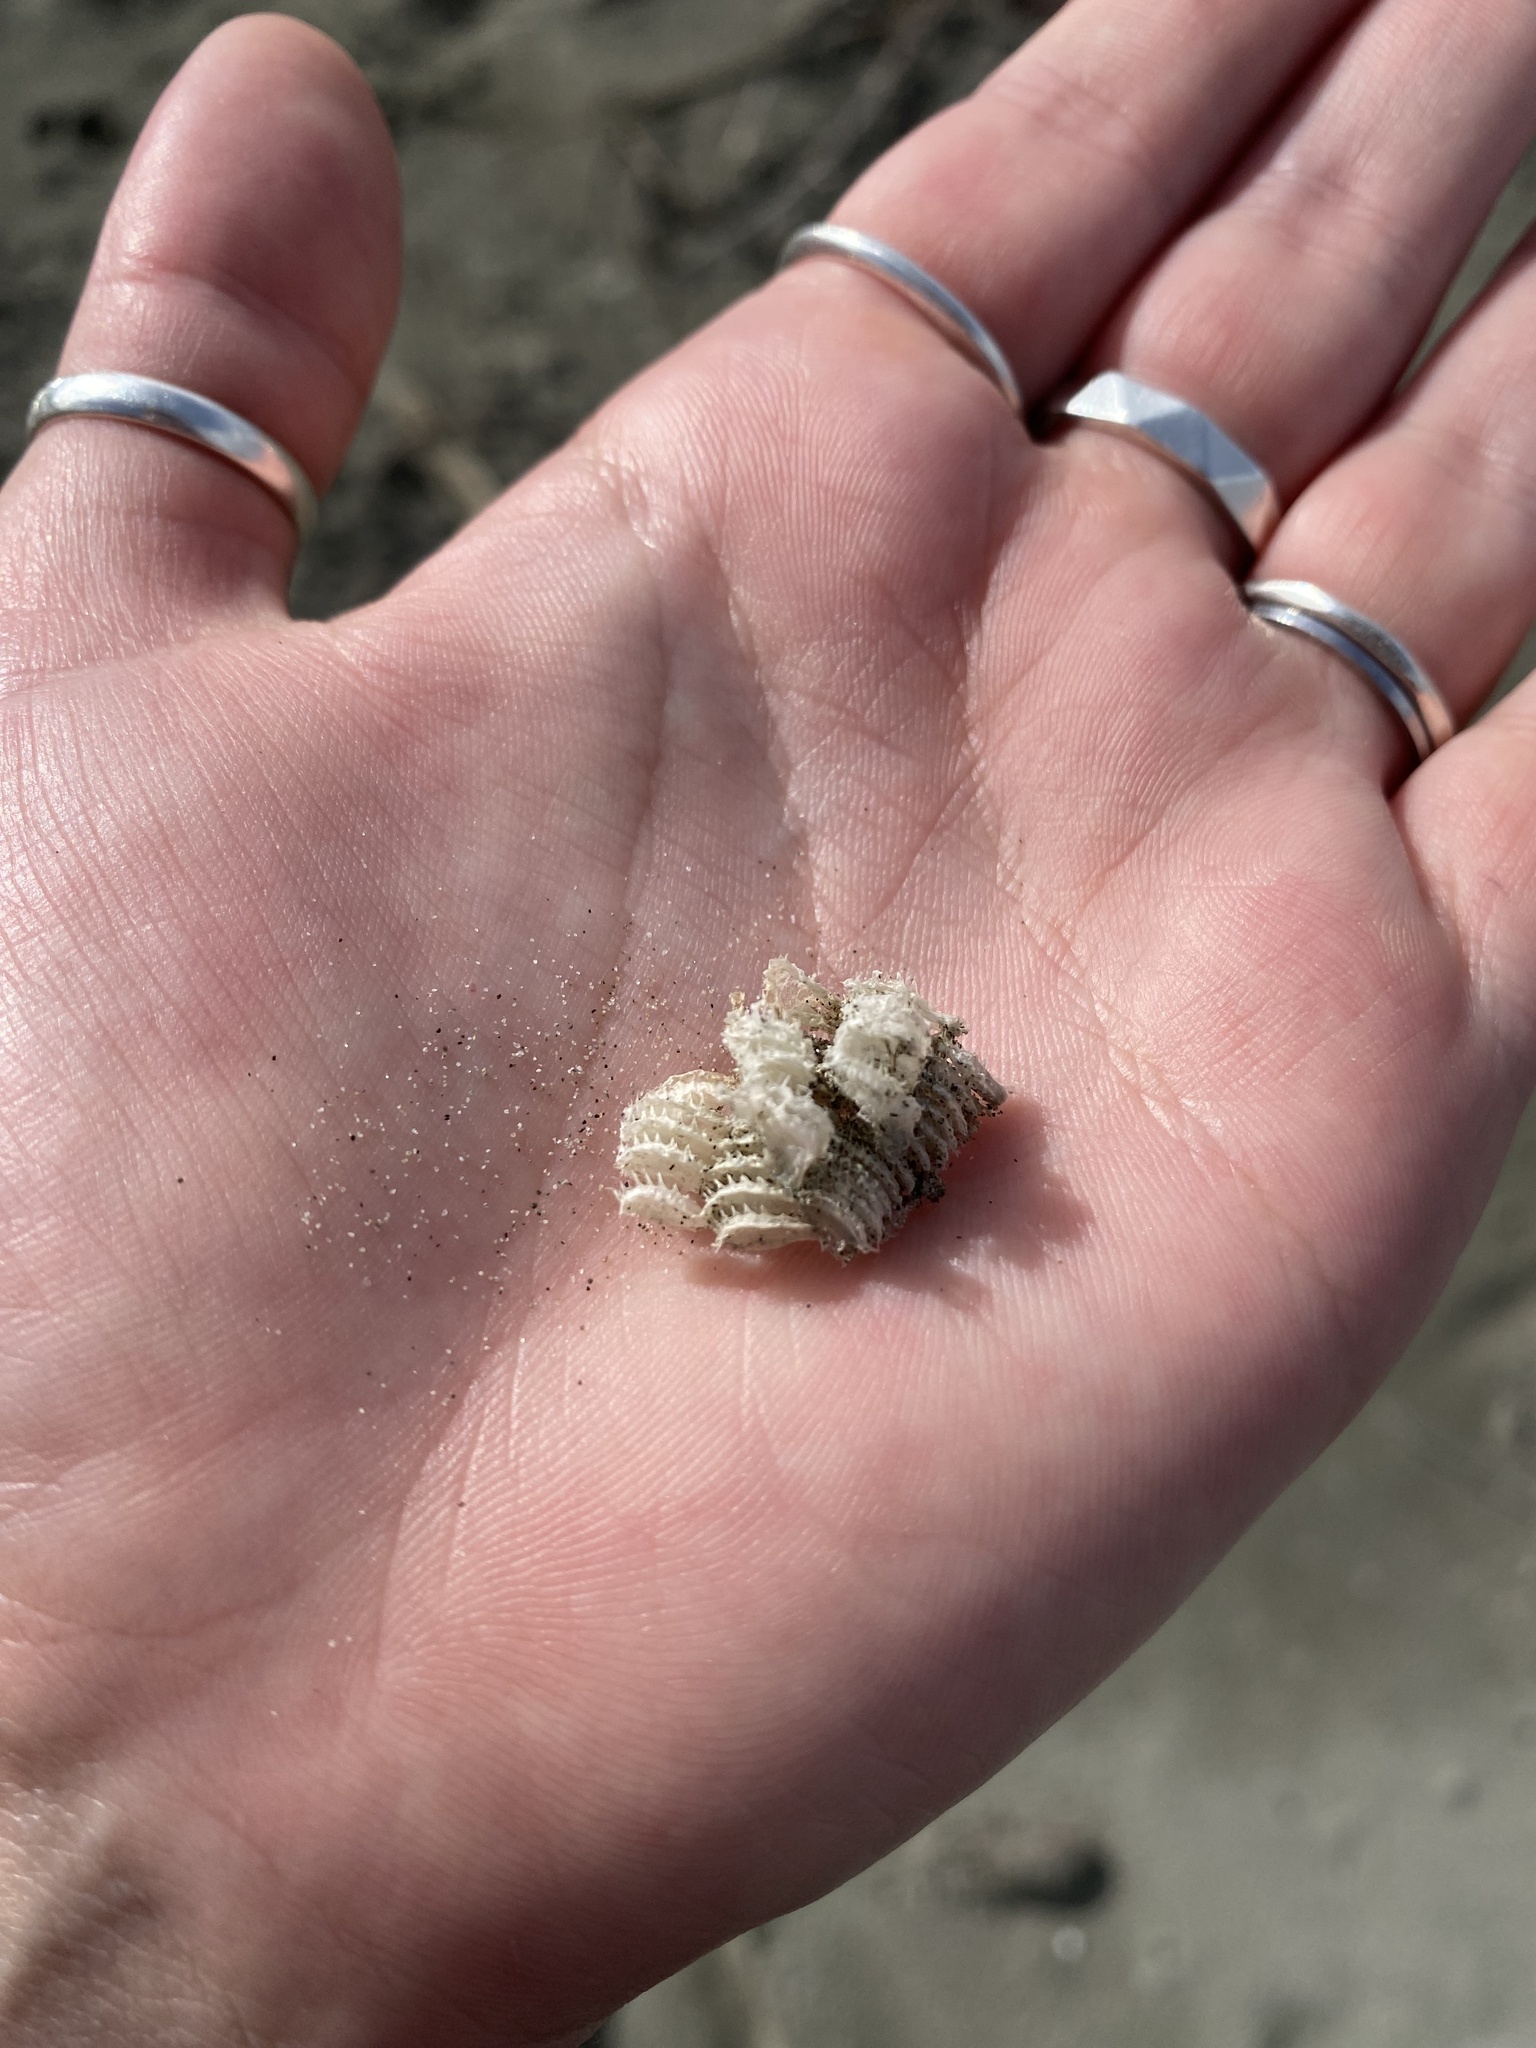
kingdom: Animalia
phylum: Mollusca
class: Gastropoda
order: Neogastropoda
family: Muricidae
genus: Poirieria
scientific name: Poirieria zelandica
